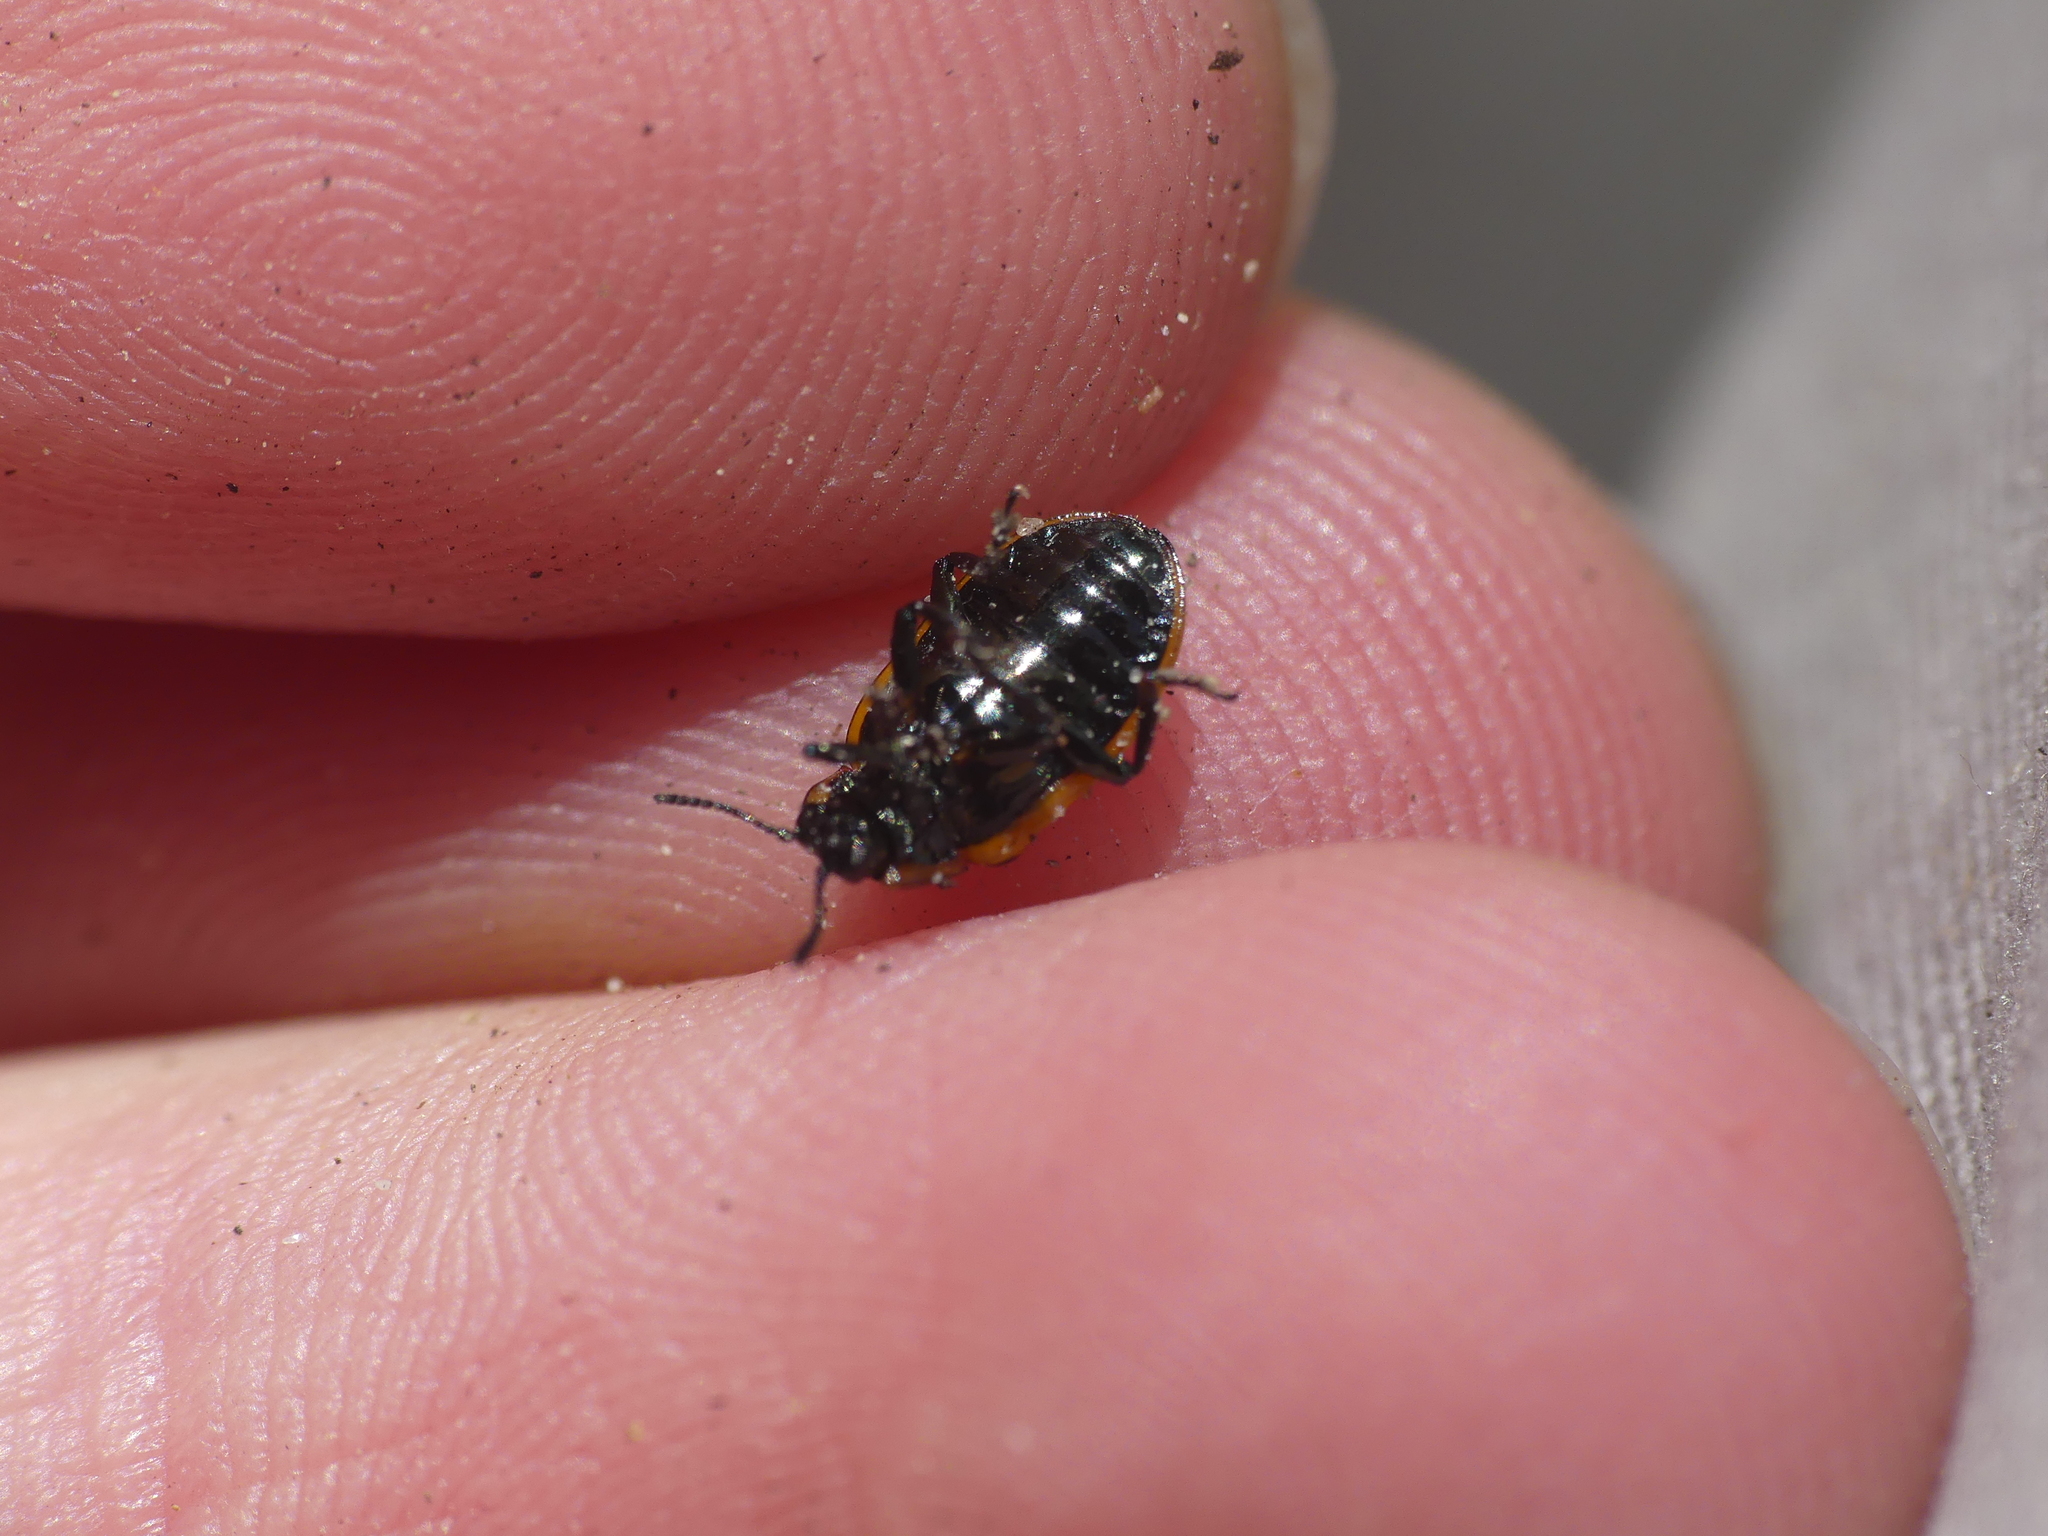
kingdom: Animalia
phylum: Arthropoda
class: Insecta
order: Coleoptera
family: Chrysomelidae
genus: Chrysomela
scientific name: Chrysomela vigintipunctata
